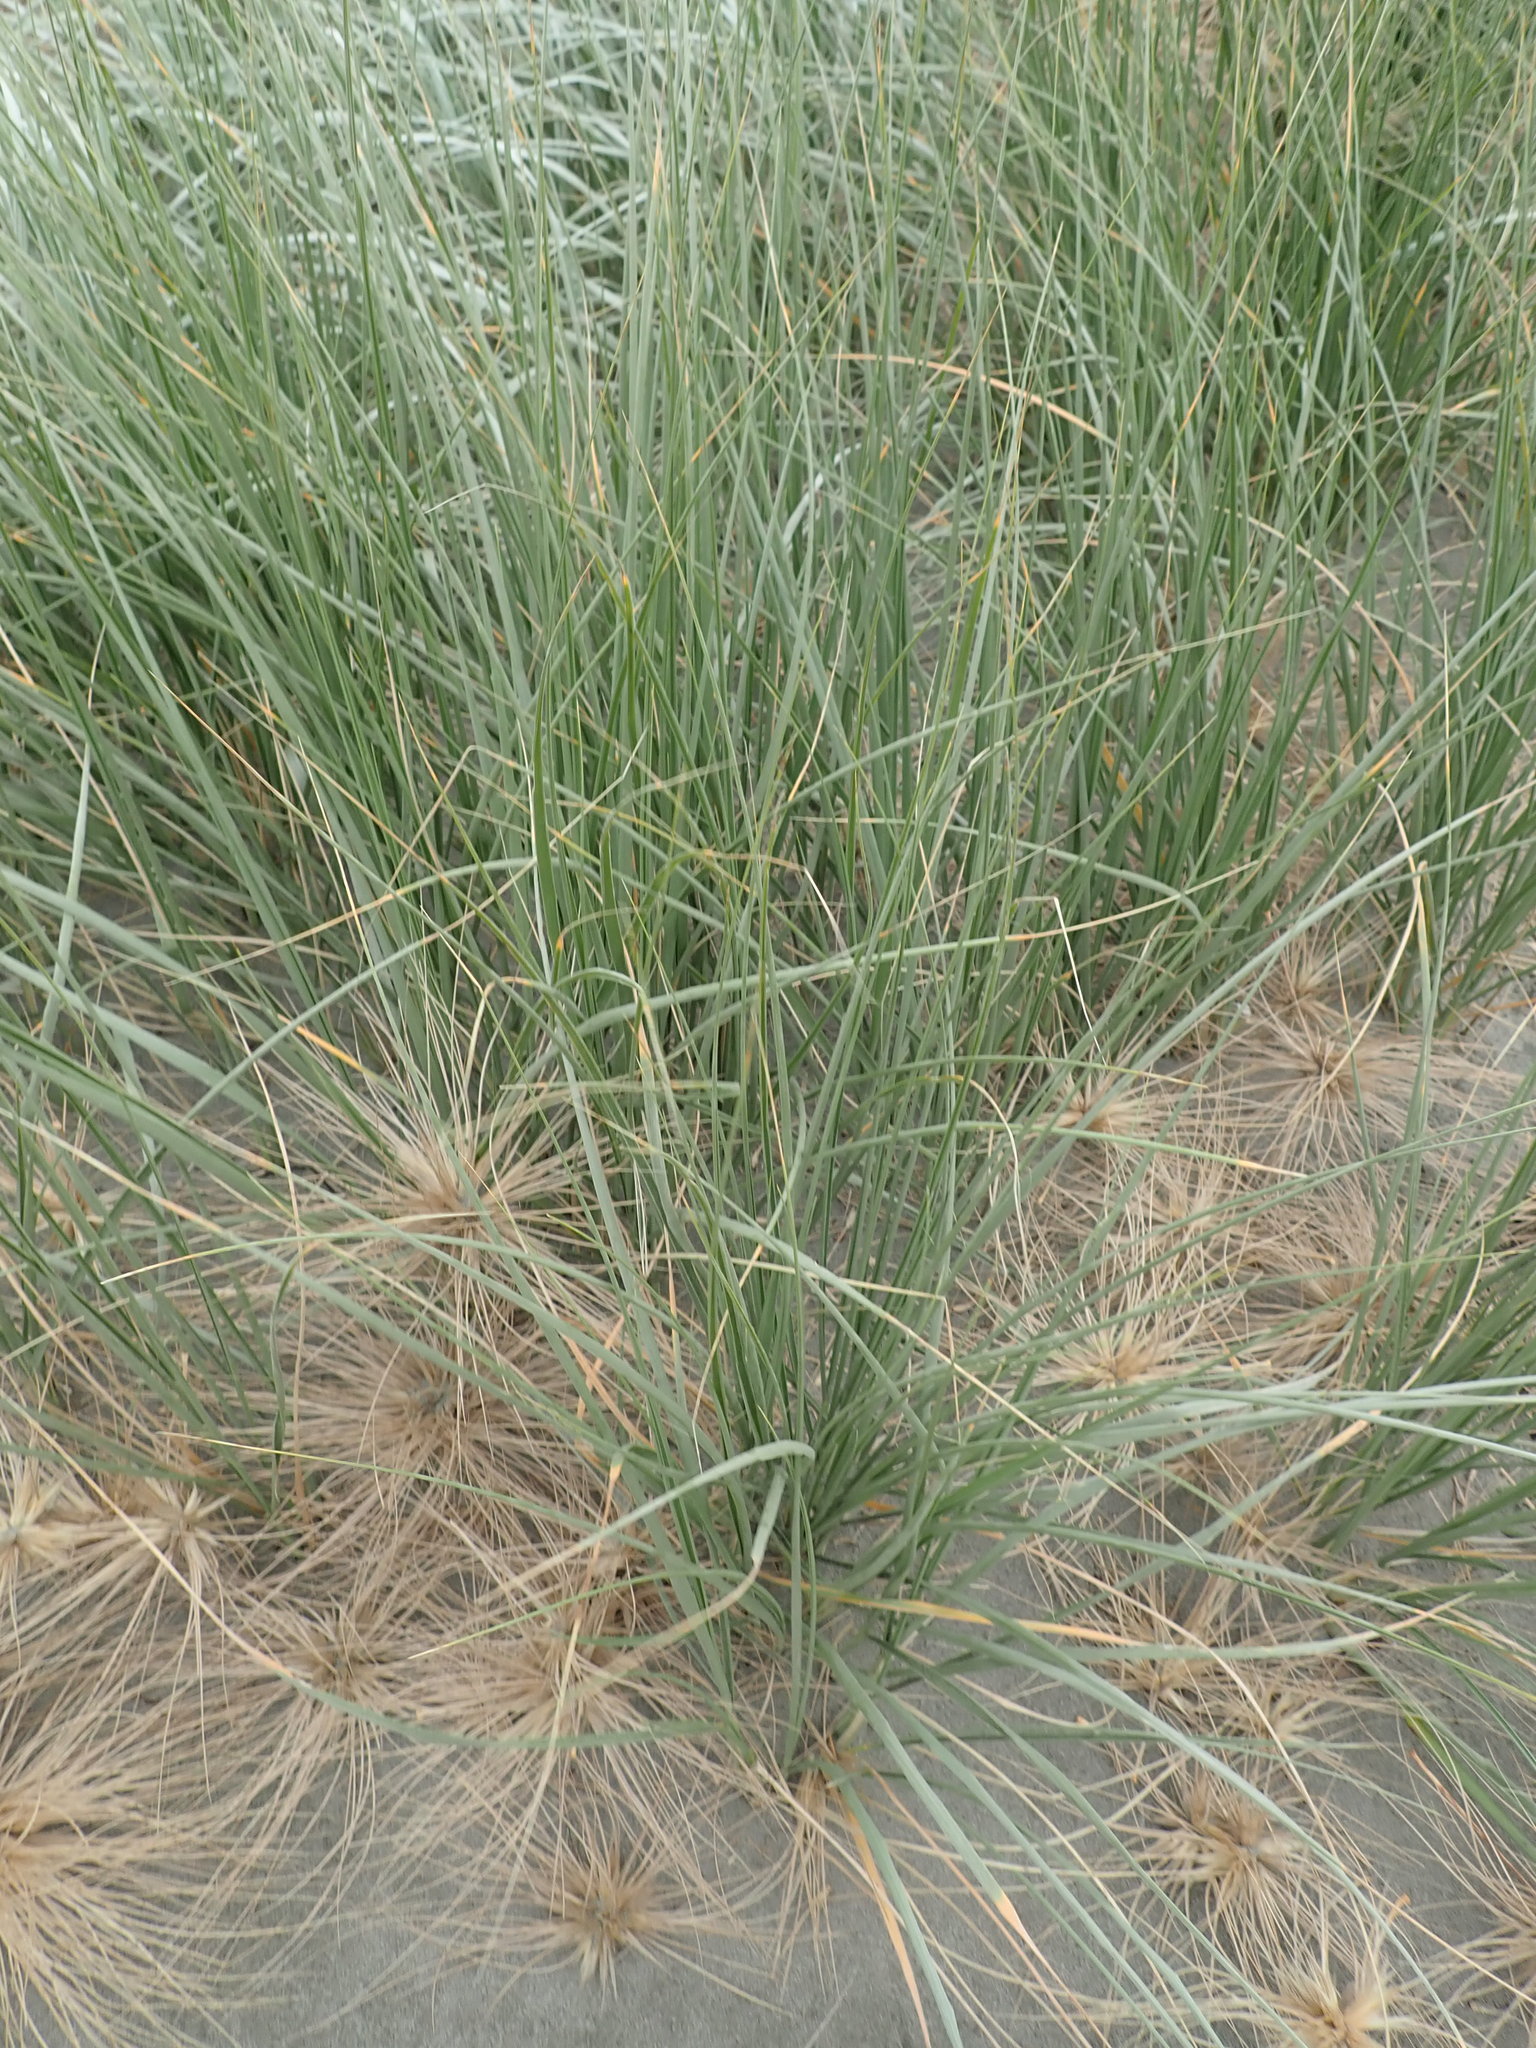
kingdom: Plantae
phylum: Tracheophyta
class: Liliopsida
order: Poales
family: Poaceae
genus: Spinifex
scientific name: Spinifex sericeus
